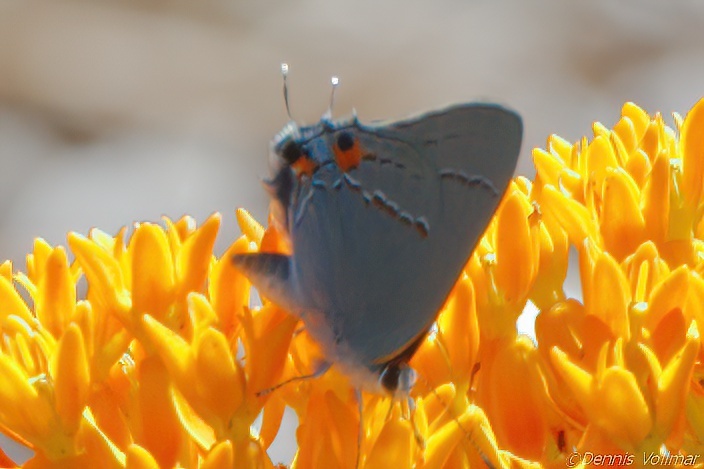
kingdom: Animalia
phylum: Arthropoda
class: Insecta
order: Lepidoptera
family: Lycaenidae
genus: Strymon
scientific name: Strymon melinus
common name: Gray hairstreak
